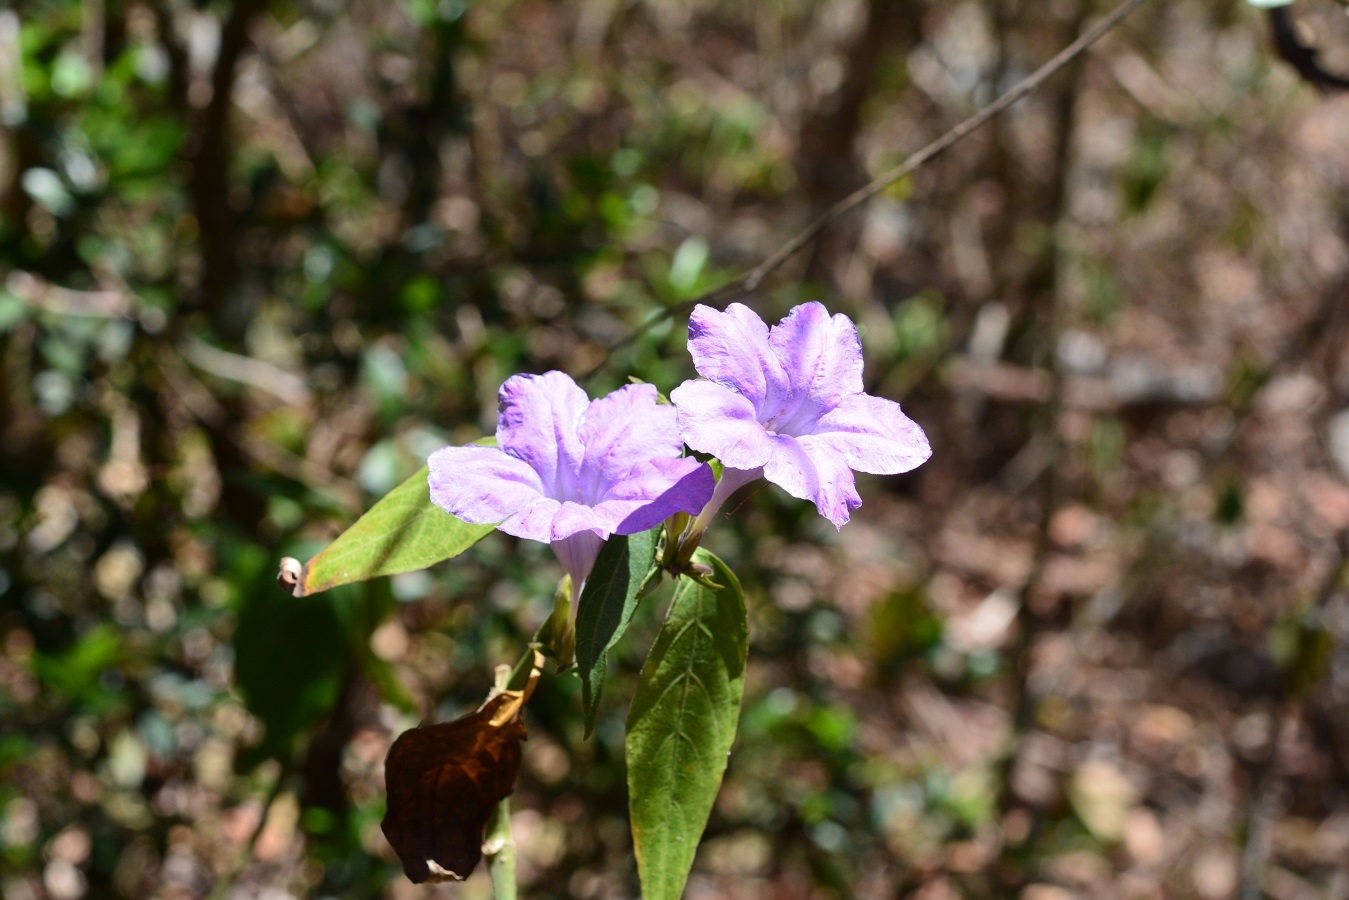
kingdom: Plantae
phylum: Tracheophyta
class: Magnoliopsida
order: Lamiales
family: Acanthaceae
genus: Ruellia
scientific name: Ruellia breedlovei
